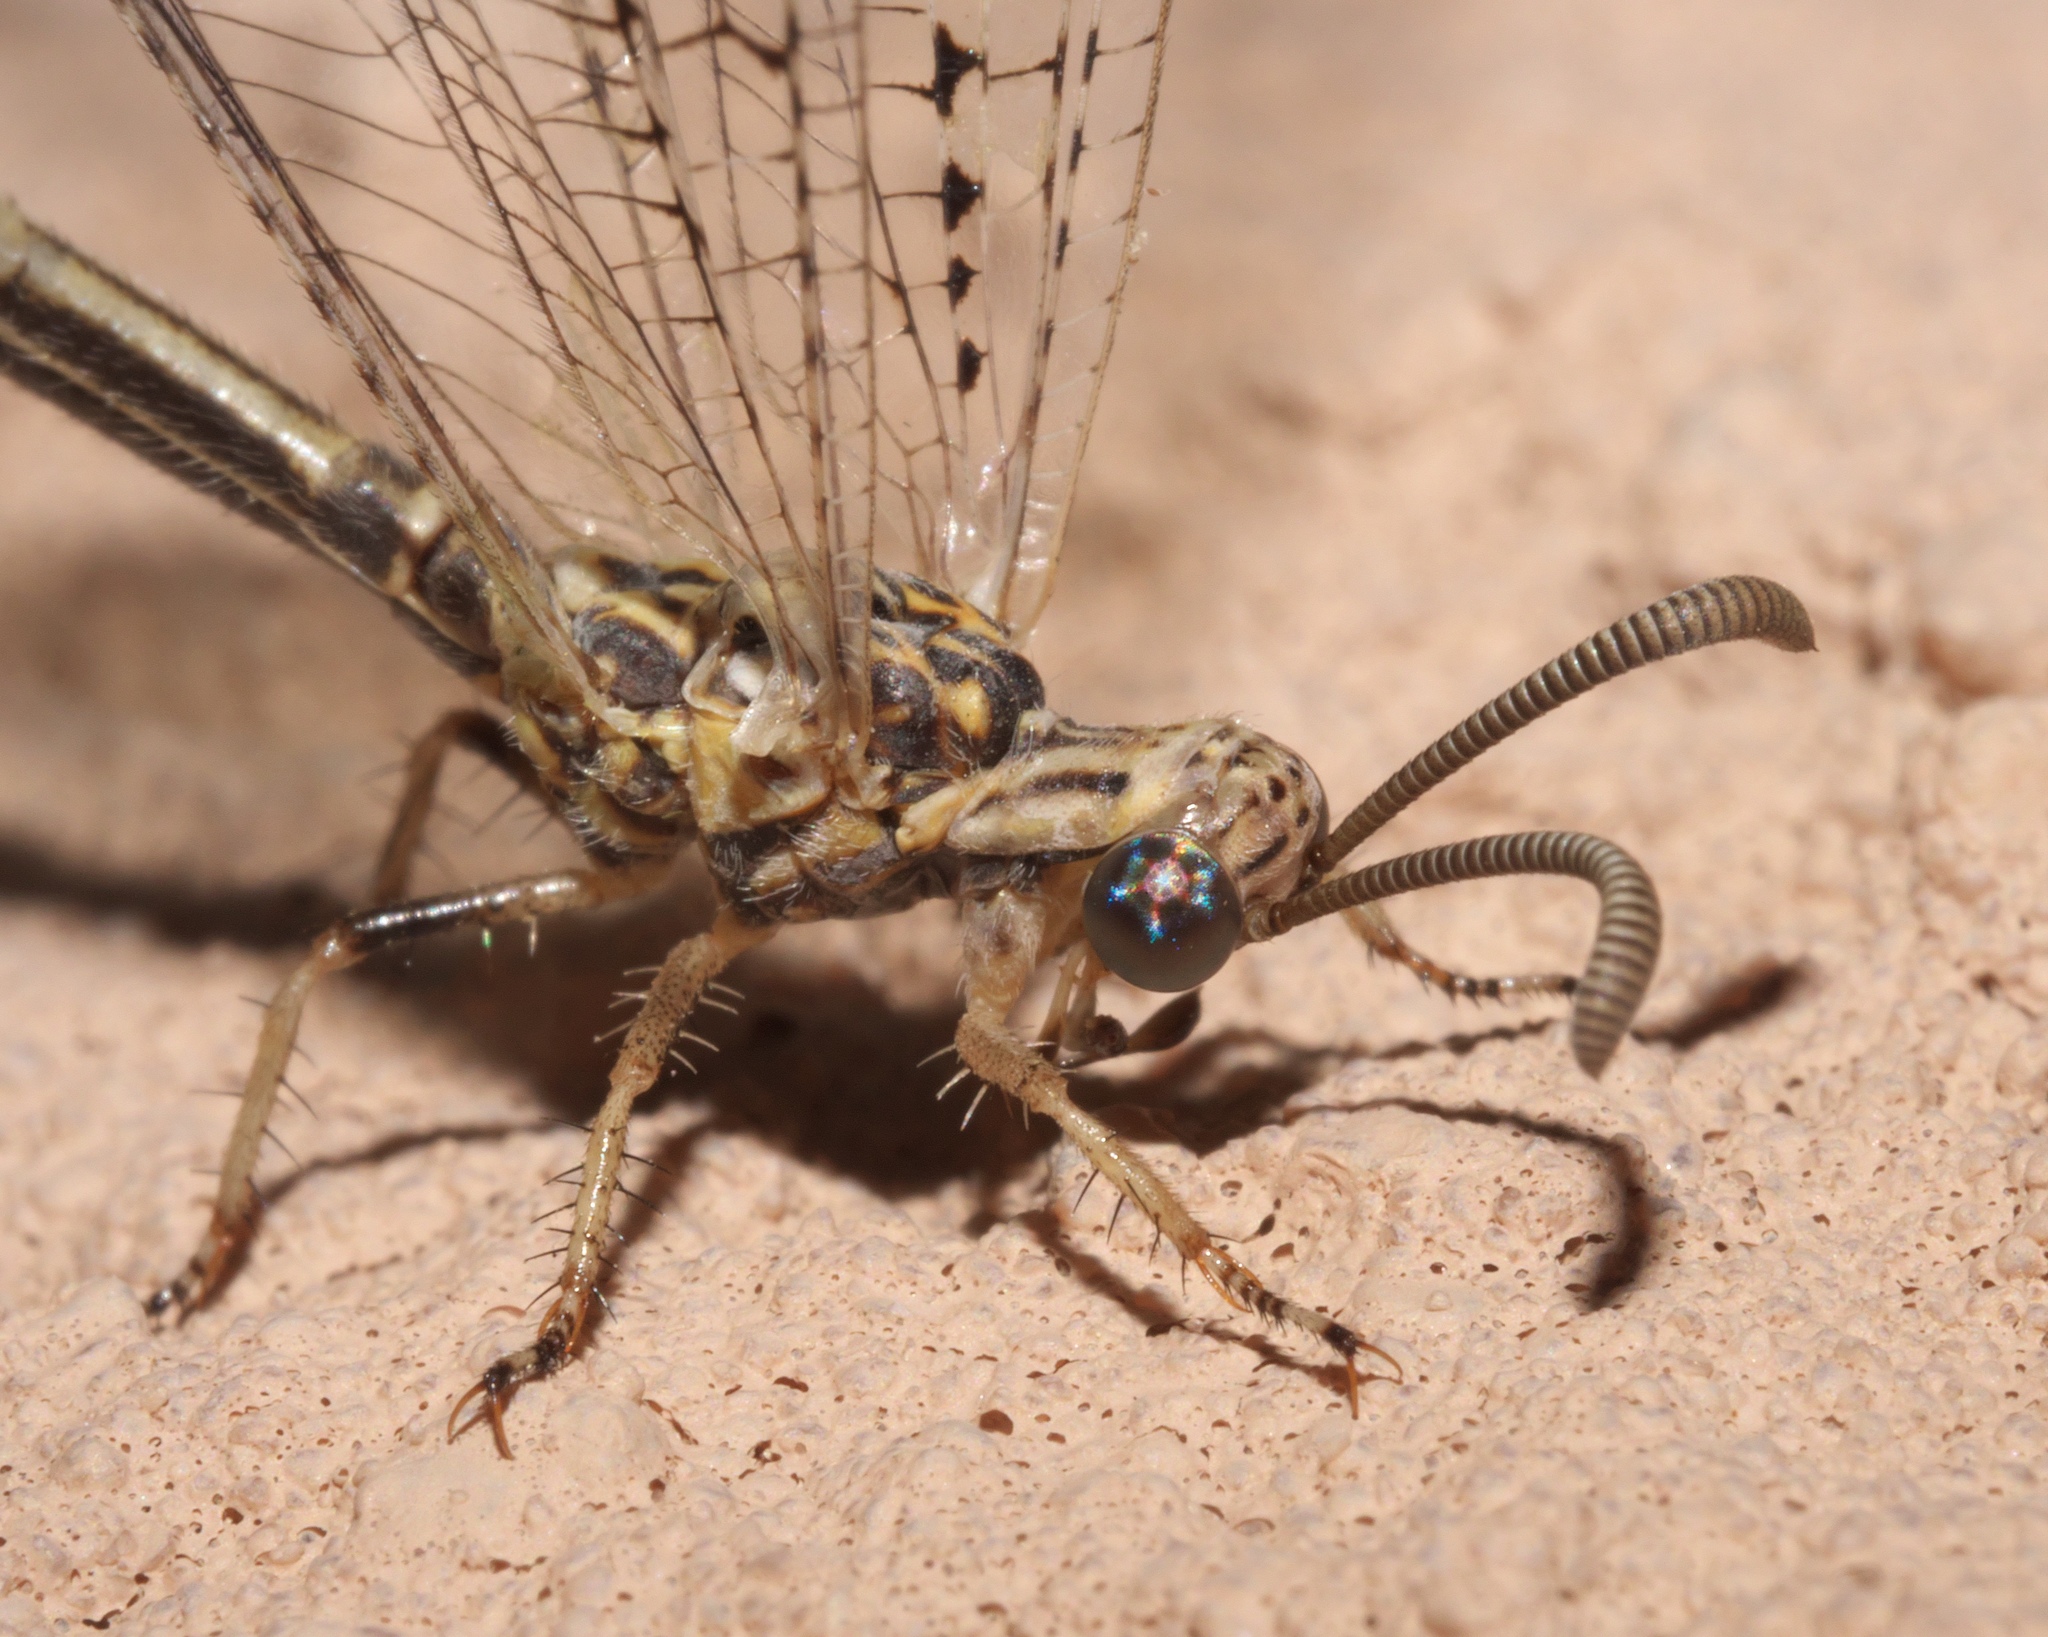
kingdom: Animalia
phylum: Arthropoda
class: Insecta
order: Neuroptera
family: Myrmeleontidae
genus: Scotoleon
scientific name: Scotoleon longipalpis
